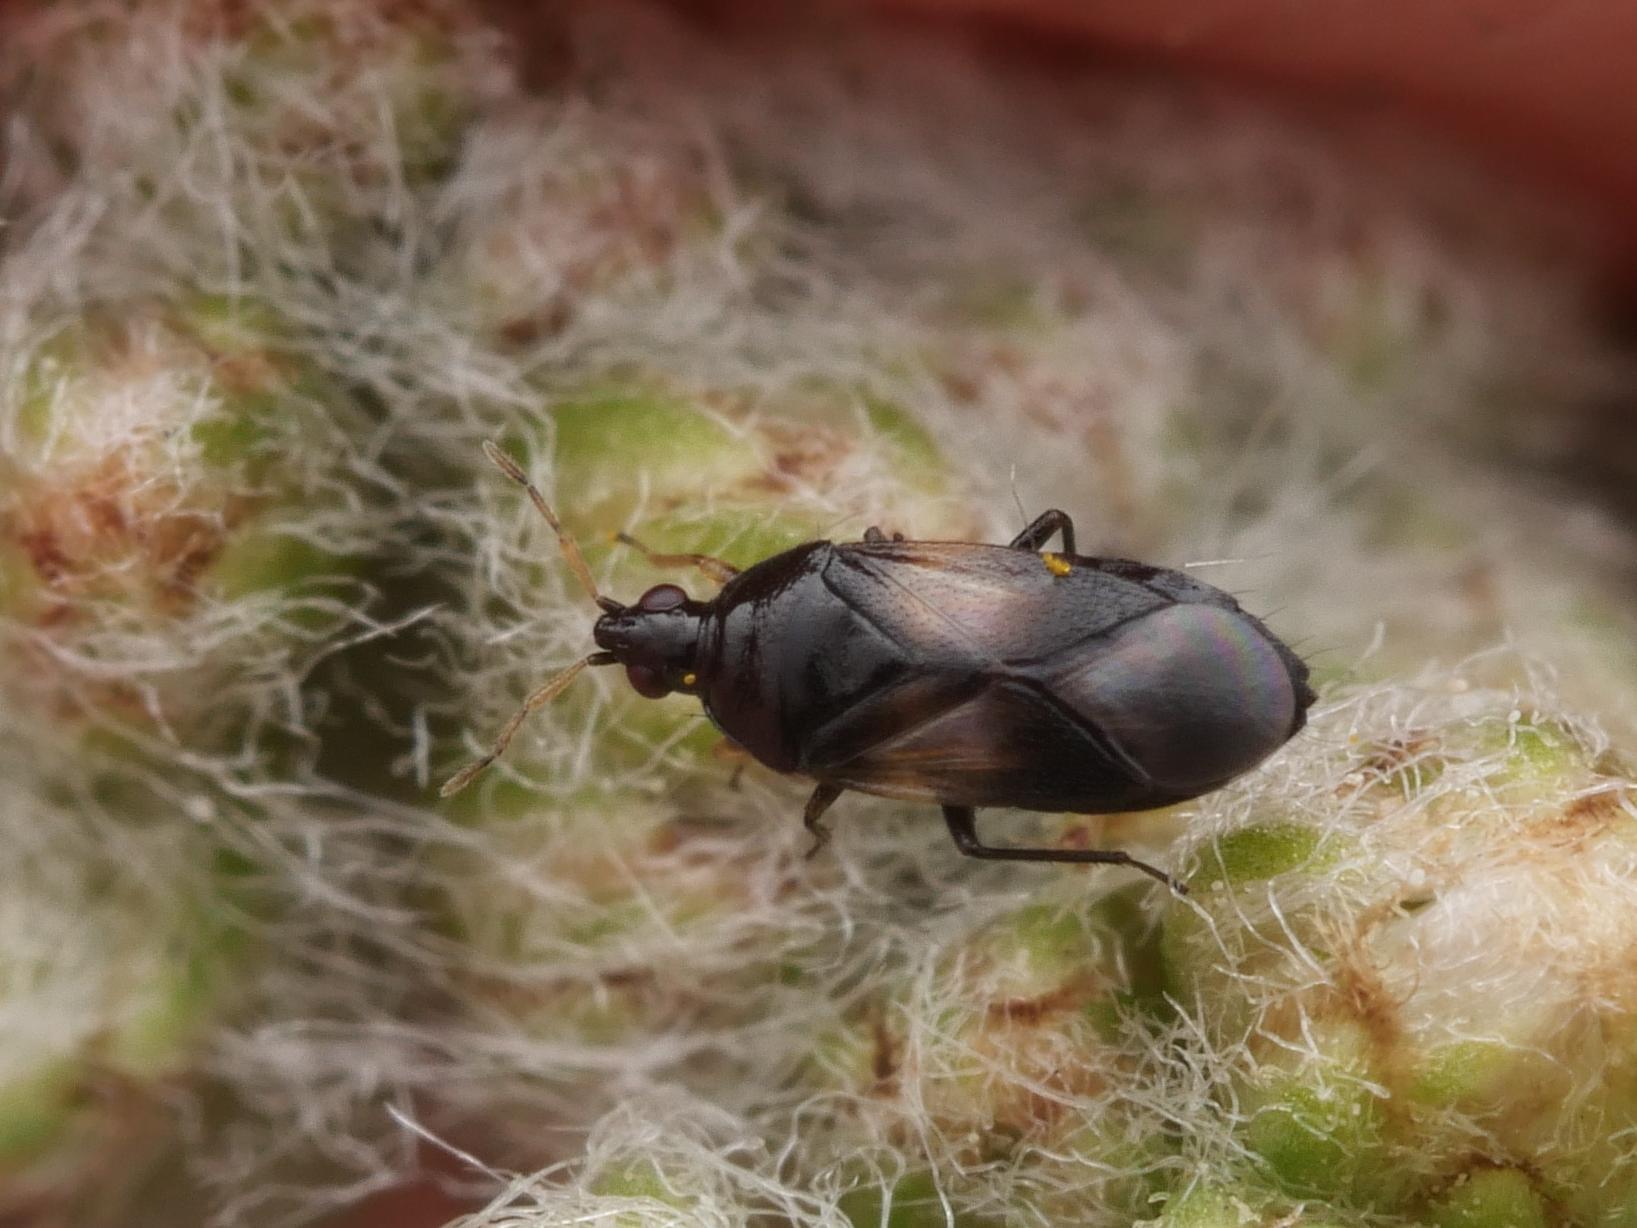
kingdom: Animalia
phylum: Arthropoda
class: Insecta
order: Hemiptera
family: Anthocoridae
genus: Orius
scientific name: Orius niger
